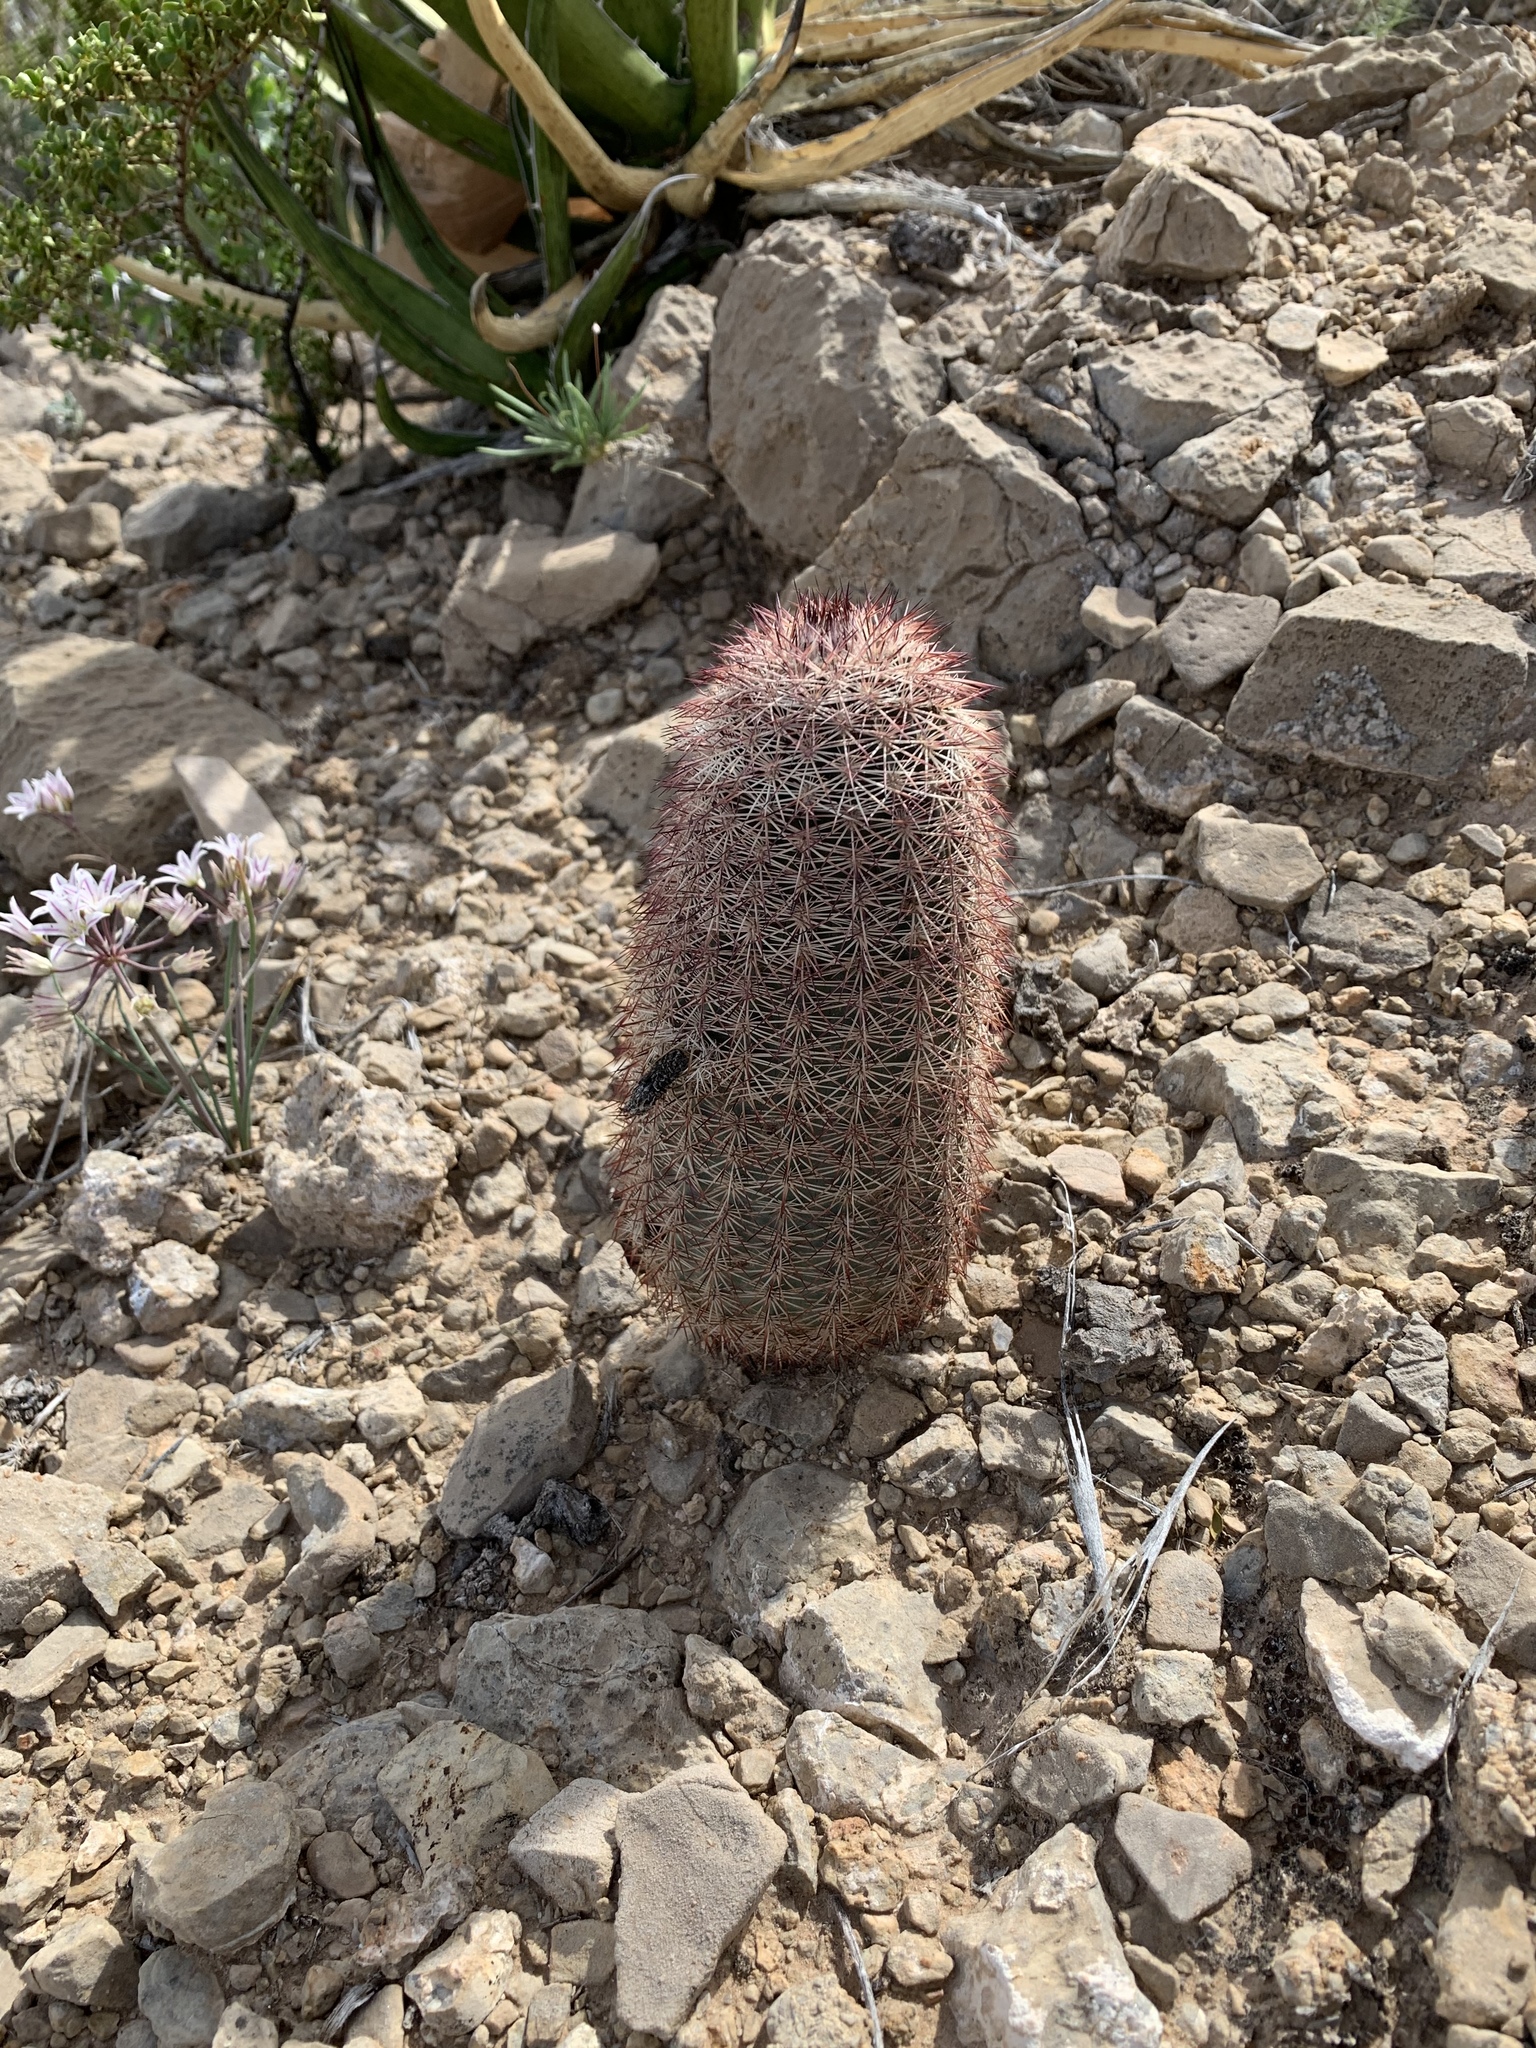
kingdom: Plantae
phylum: Tracheophyta
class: Magnoliopsida
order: Caryophyllales
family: Cactaceae
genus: Echinocereus
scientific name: Echinocereus dasyacanthus
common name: Spiny hedgehog cactus
